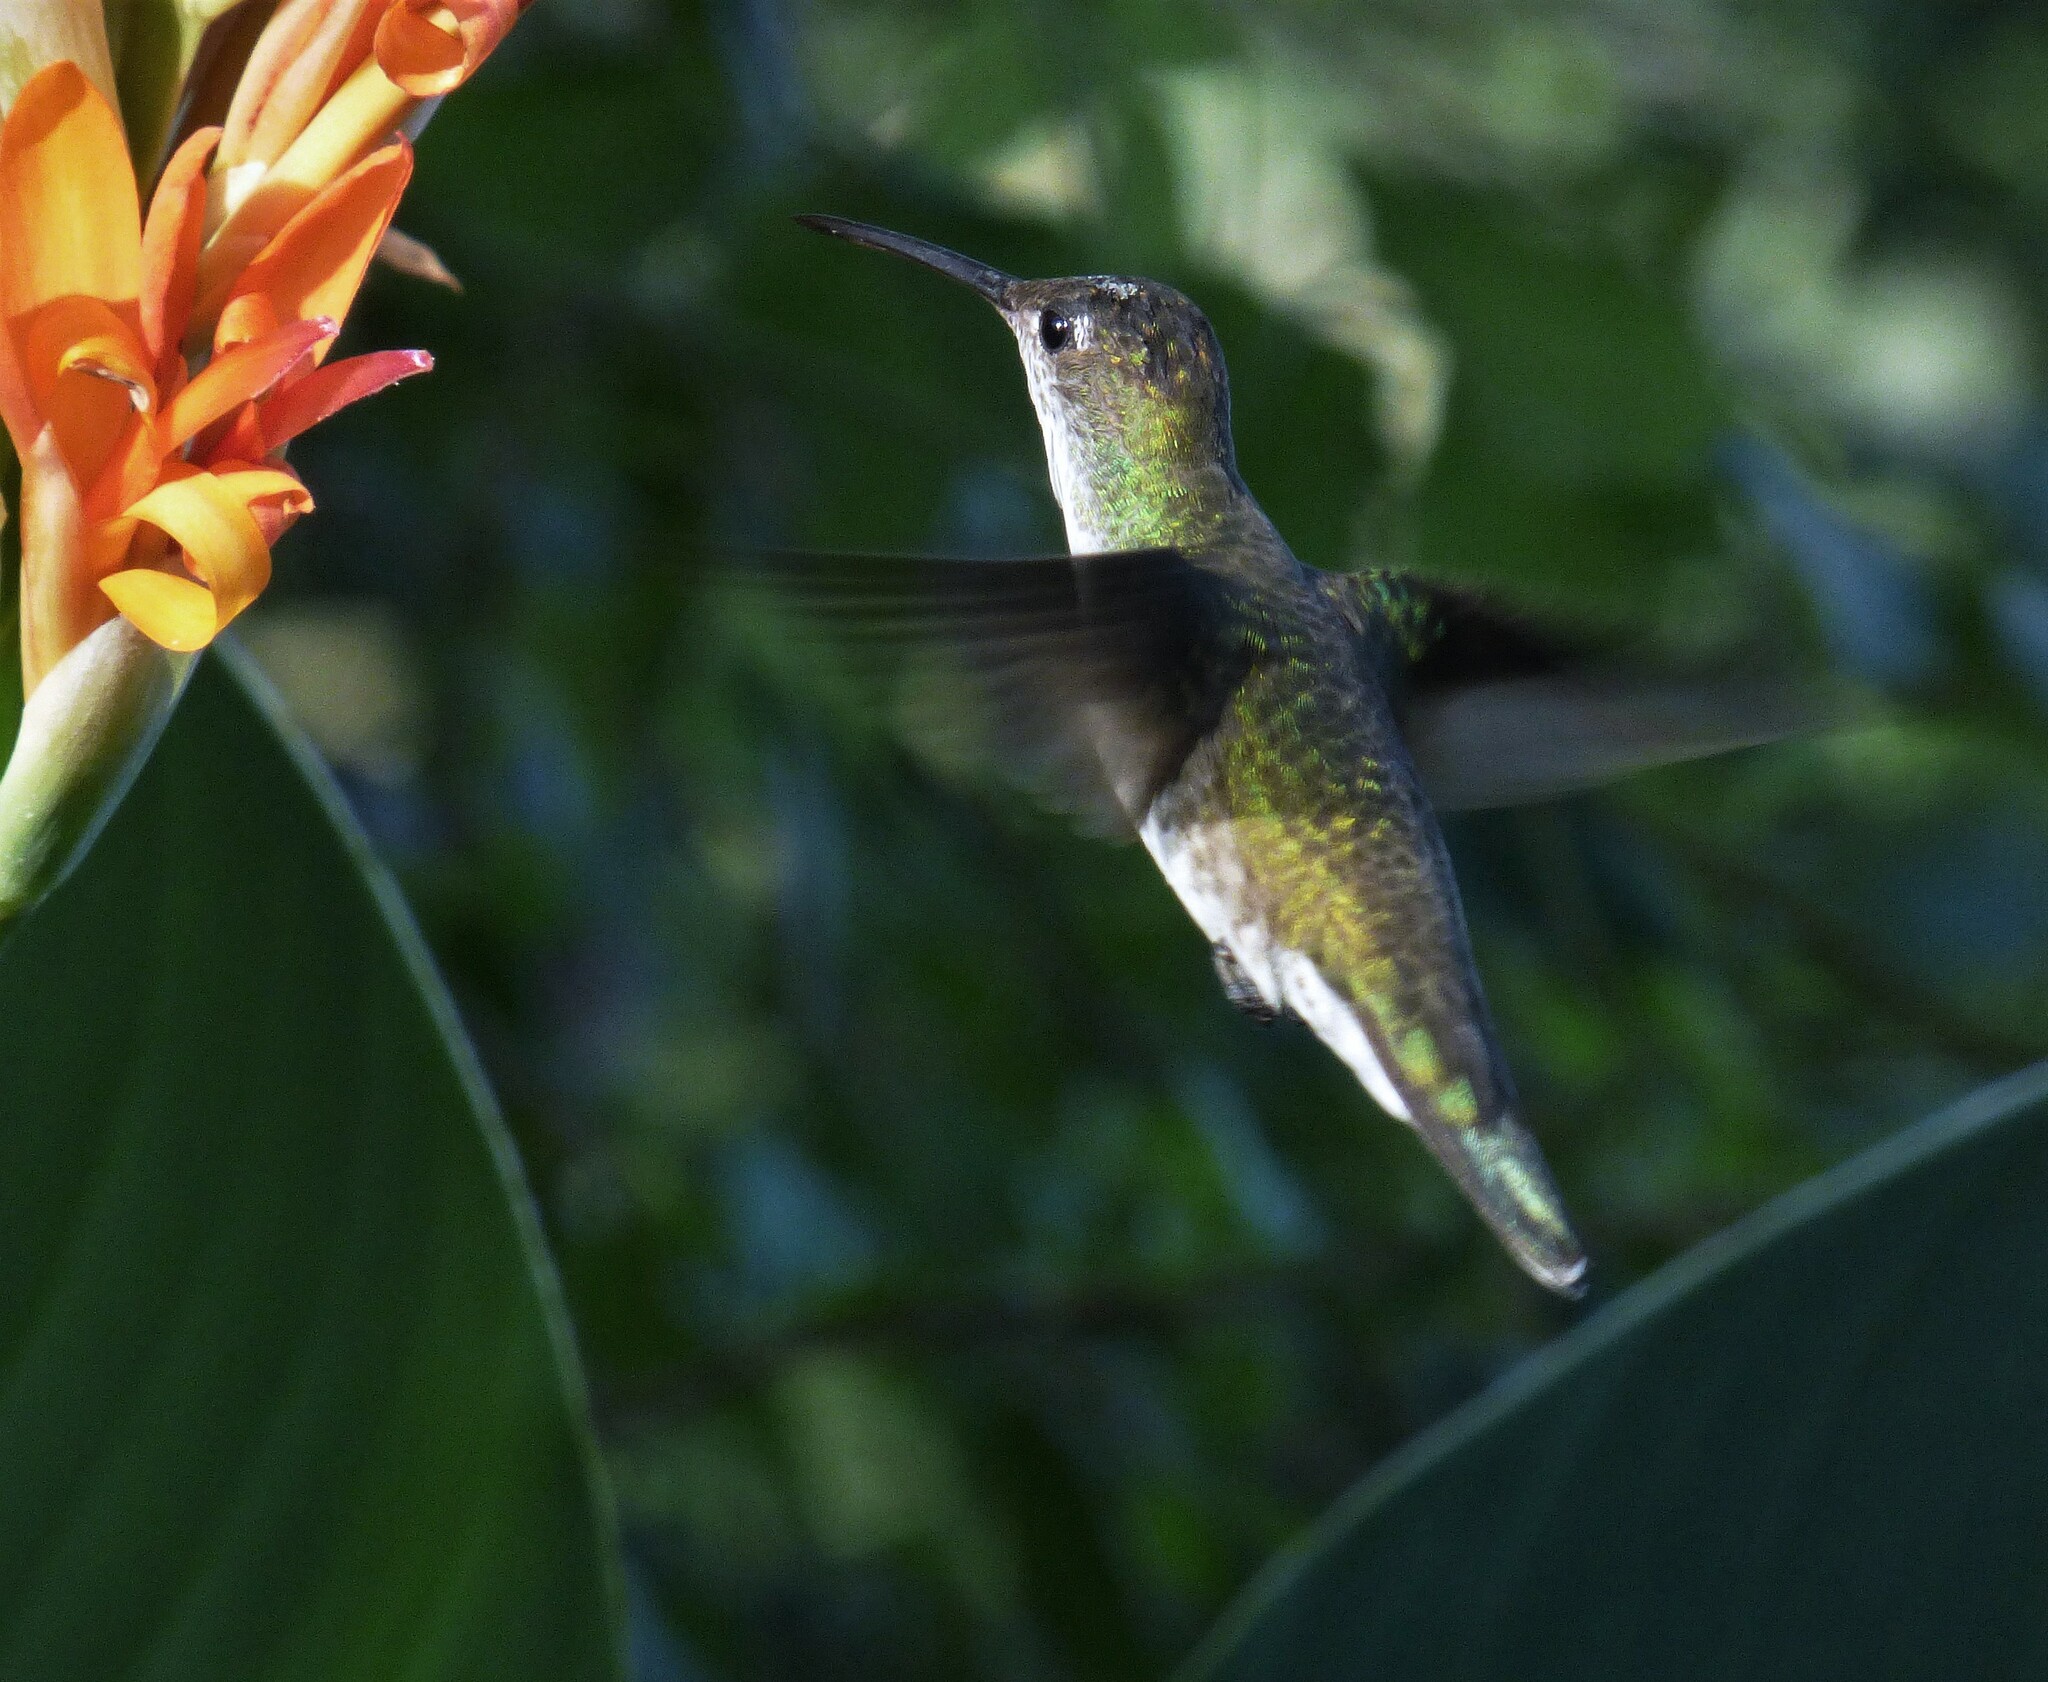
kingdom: Animalia
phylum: Chordata
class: Aves
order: Apodiformes
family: Trochilidae
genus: Elliotomyia
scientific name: Elliotomyia chionogaster
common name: White-bellied hummingbird
